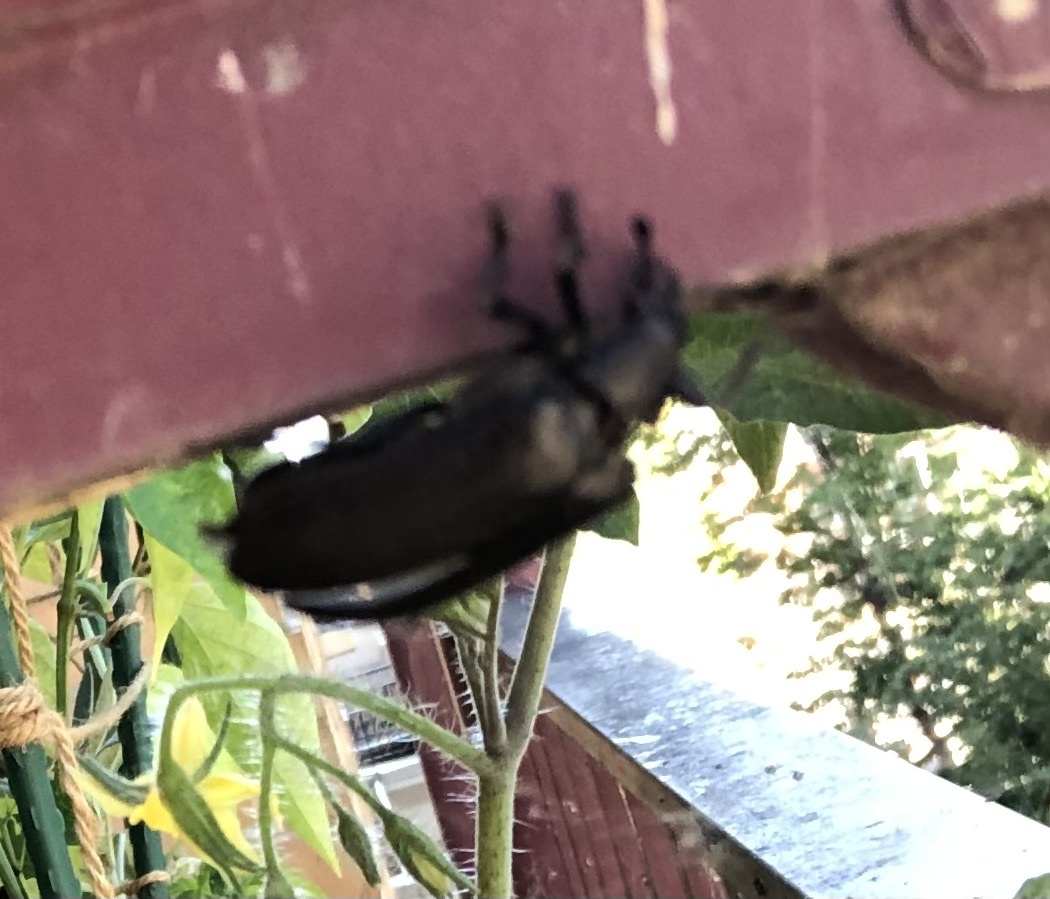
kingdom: Animalia
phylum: Arthropoda
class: Insecta
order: Coleoptera
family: Rhipiceridae
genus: Sandalus
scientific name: Sandalus niger
